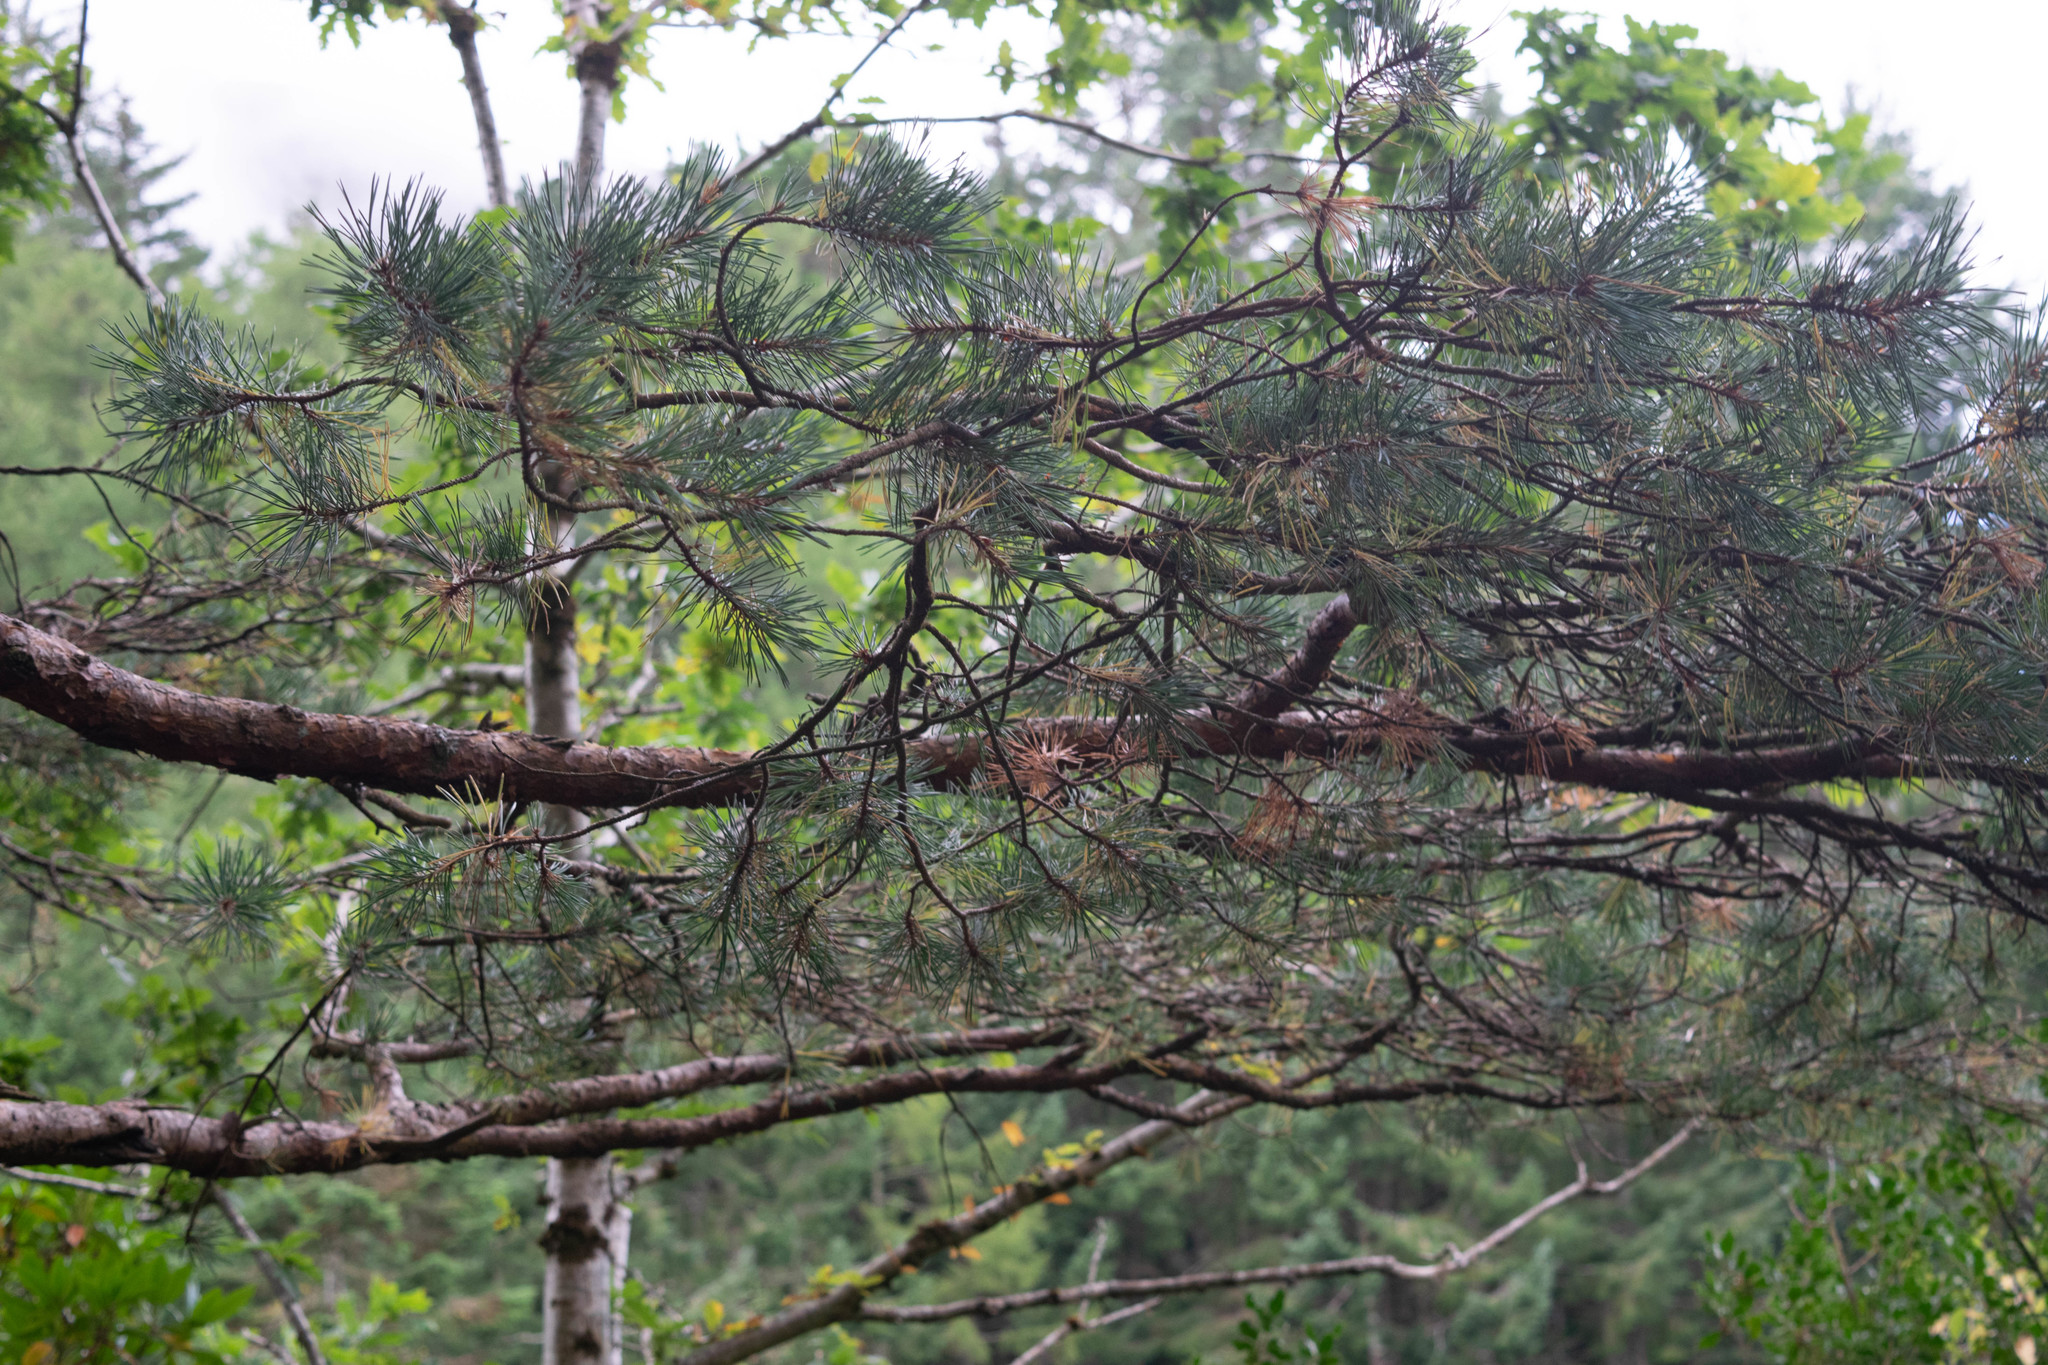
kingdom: Plantae
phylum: Tracheophyta
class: Pinopsida
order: Pinales
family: Pinaceae
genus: Pinus
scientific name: Pinus sylvestris
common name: Scots pine
